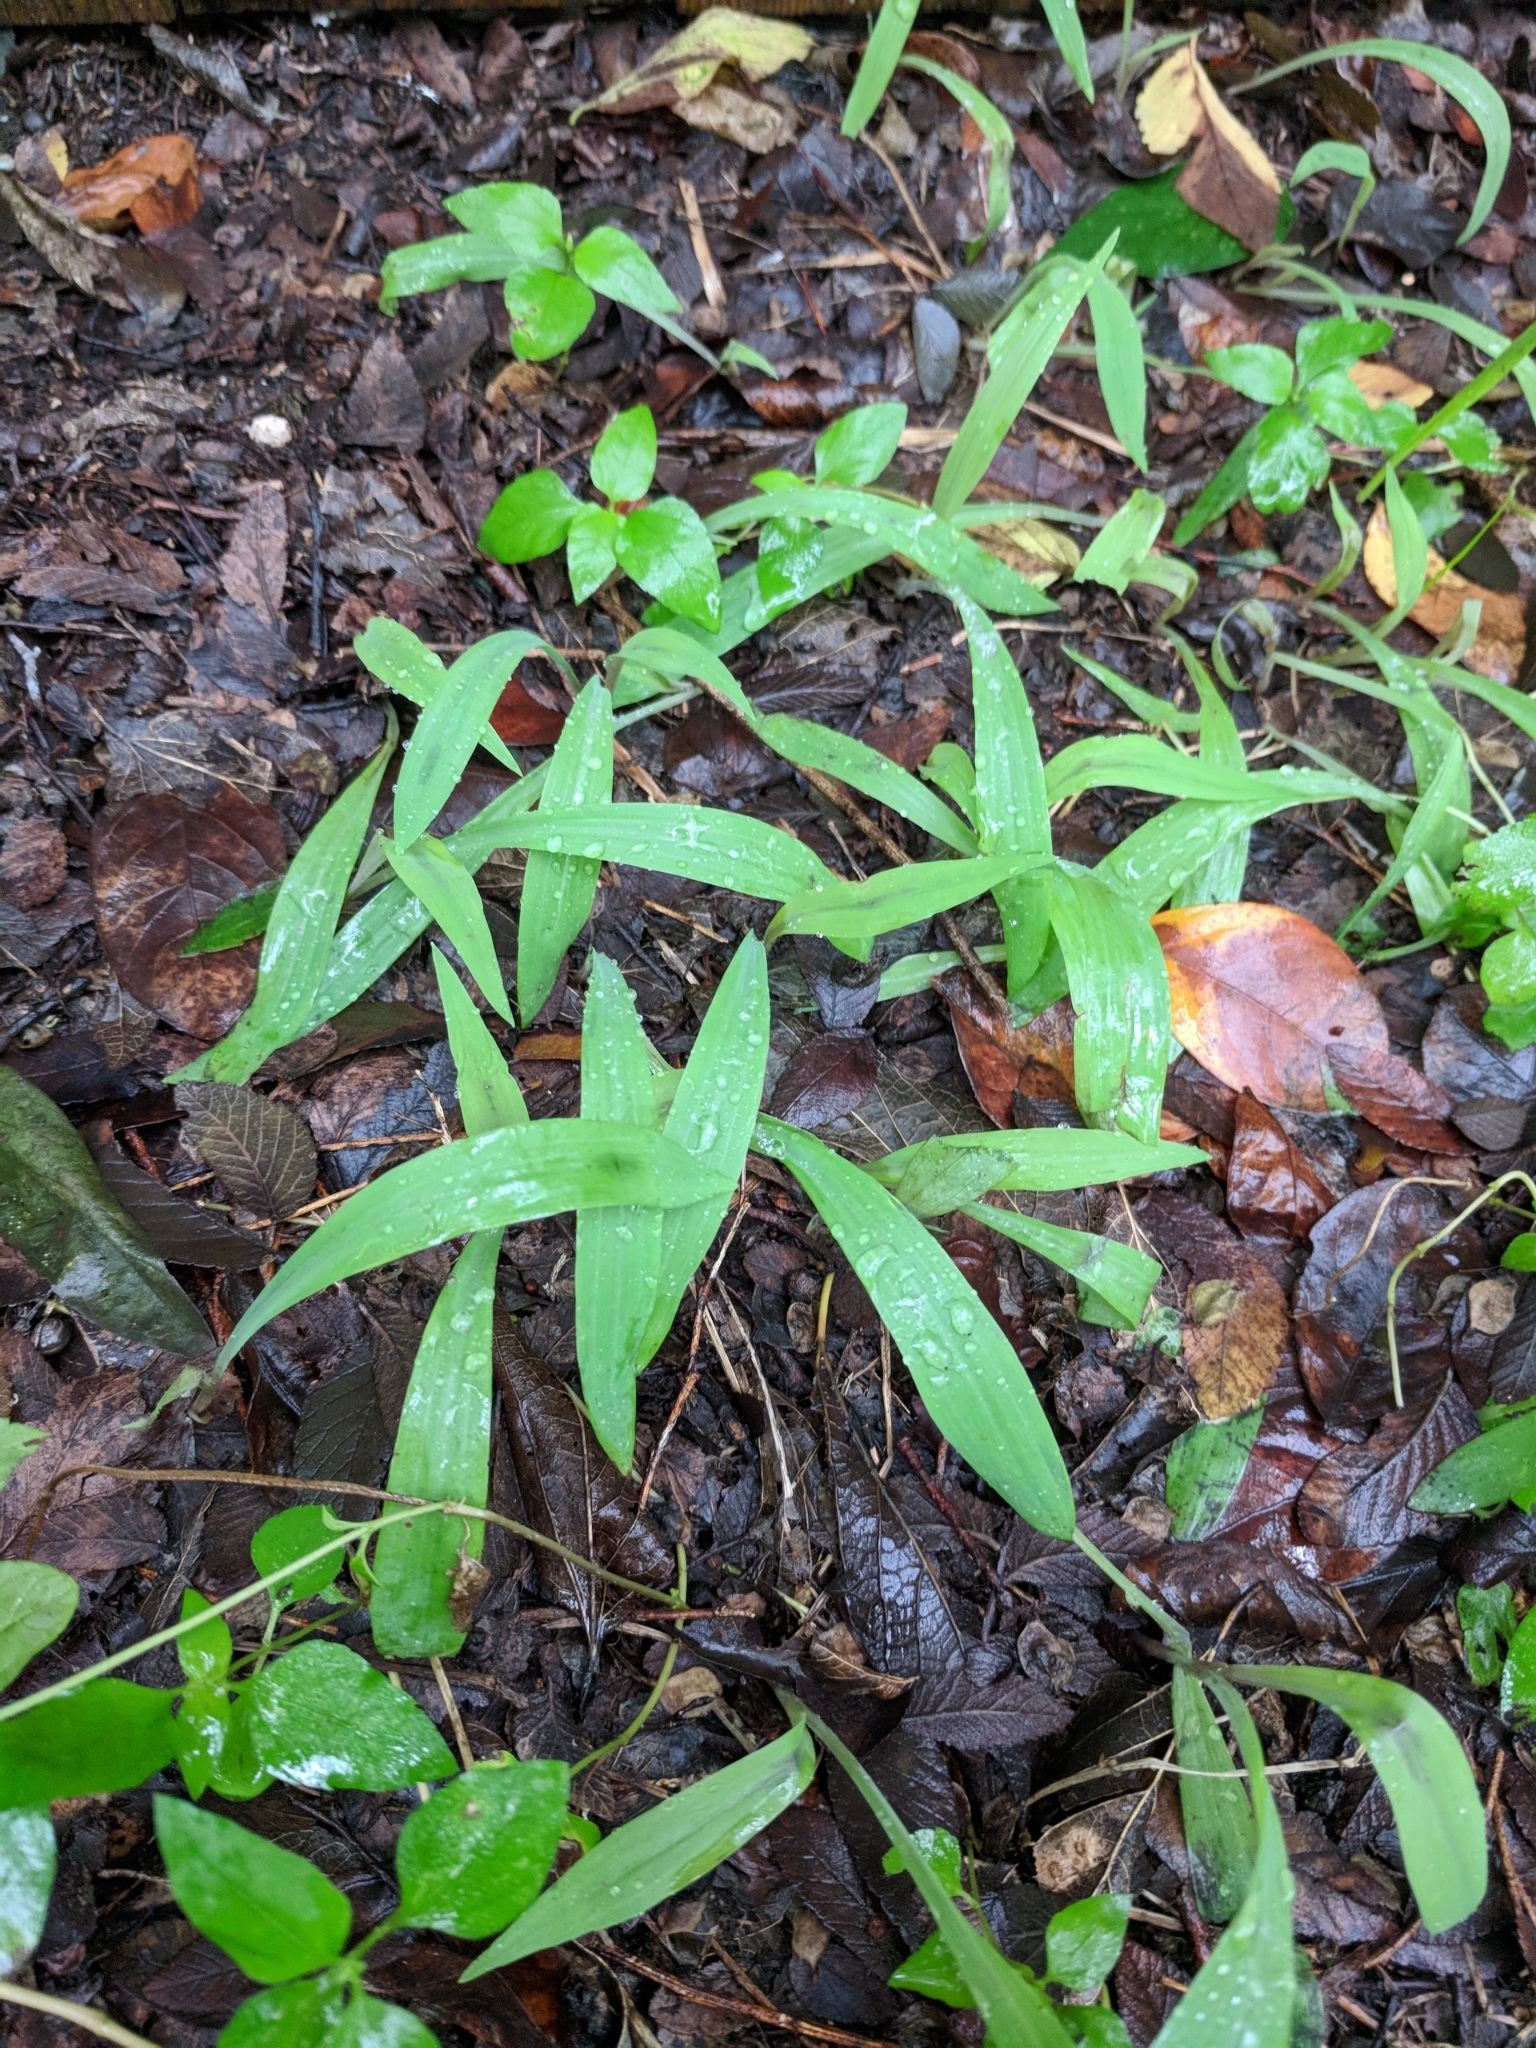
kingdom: Plantae
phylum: Tracheophyta
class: Liliopsida
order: Commelinales
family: Commelinaceae
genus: Tinantia
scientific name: Tinantia anomala
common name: False dayflower
